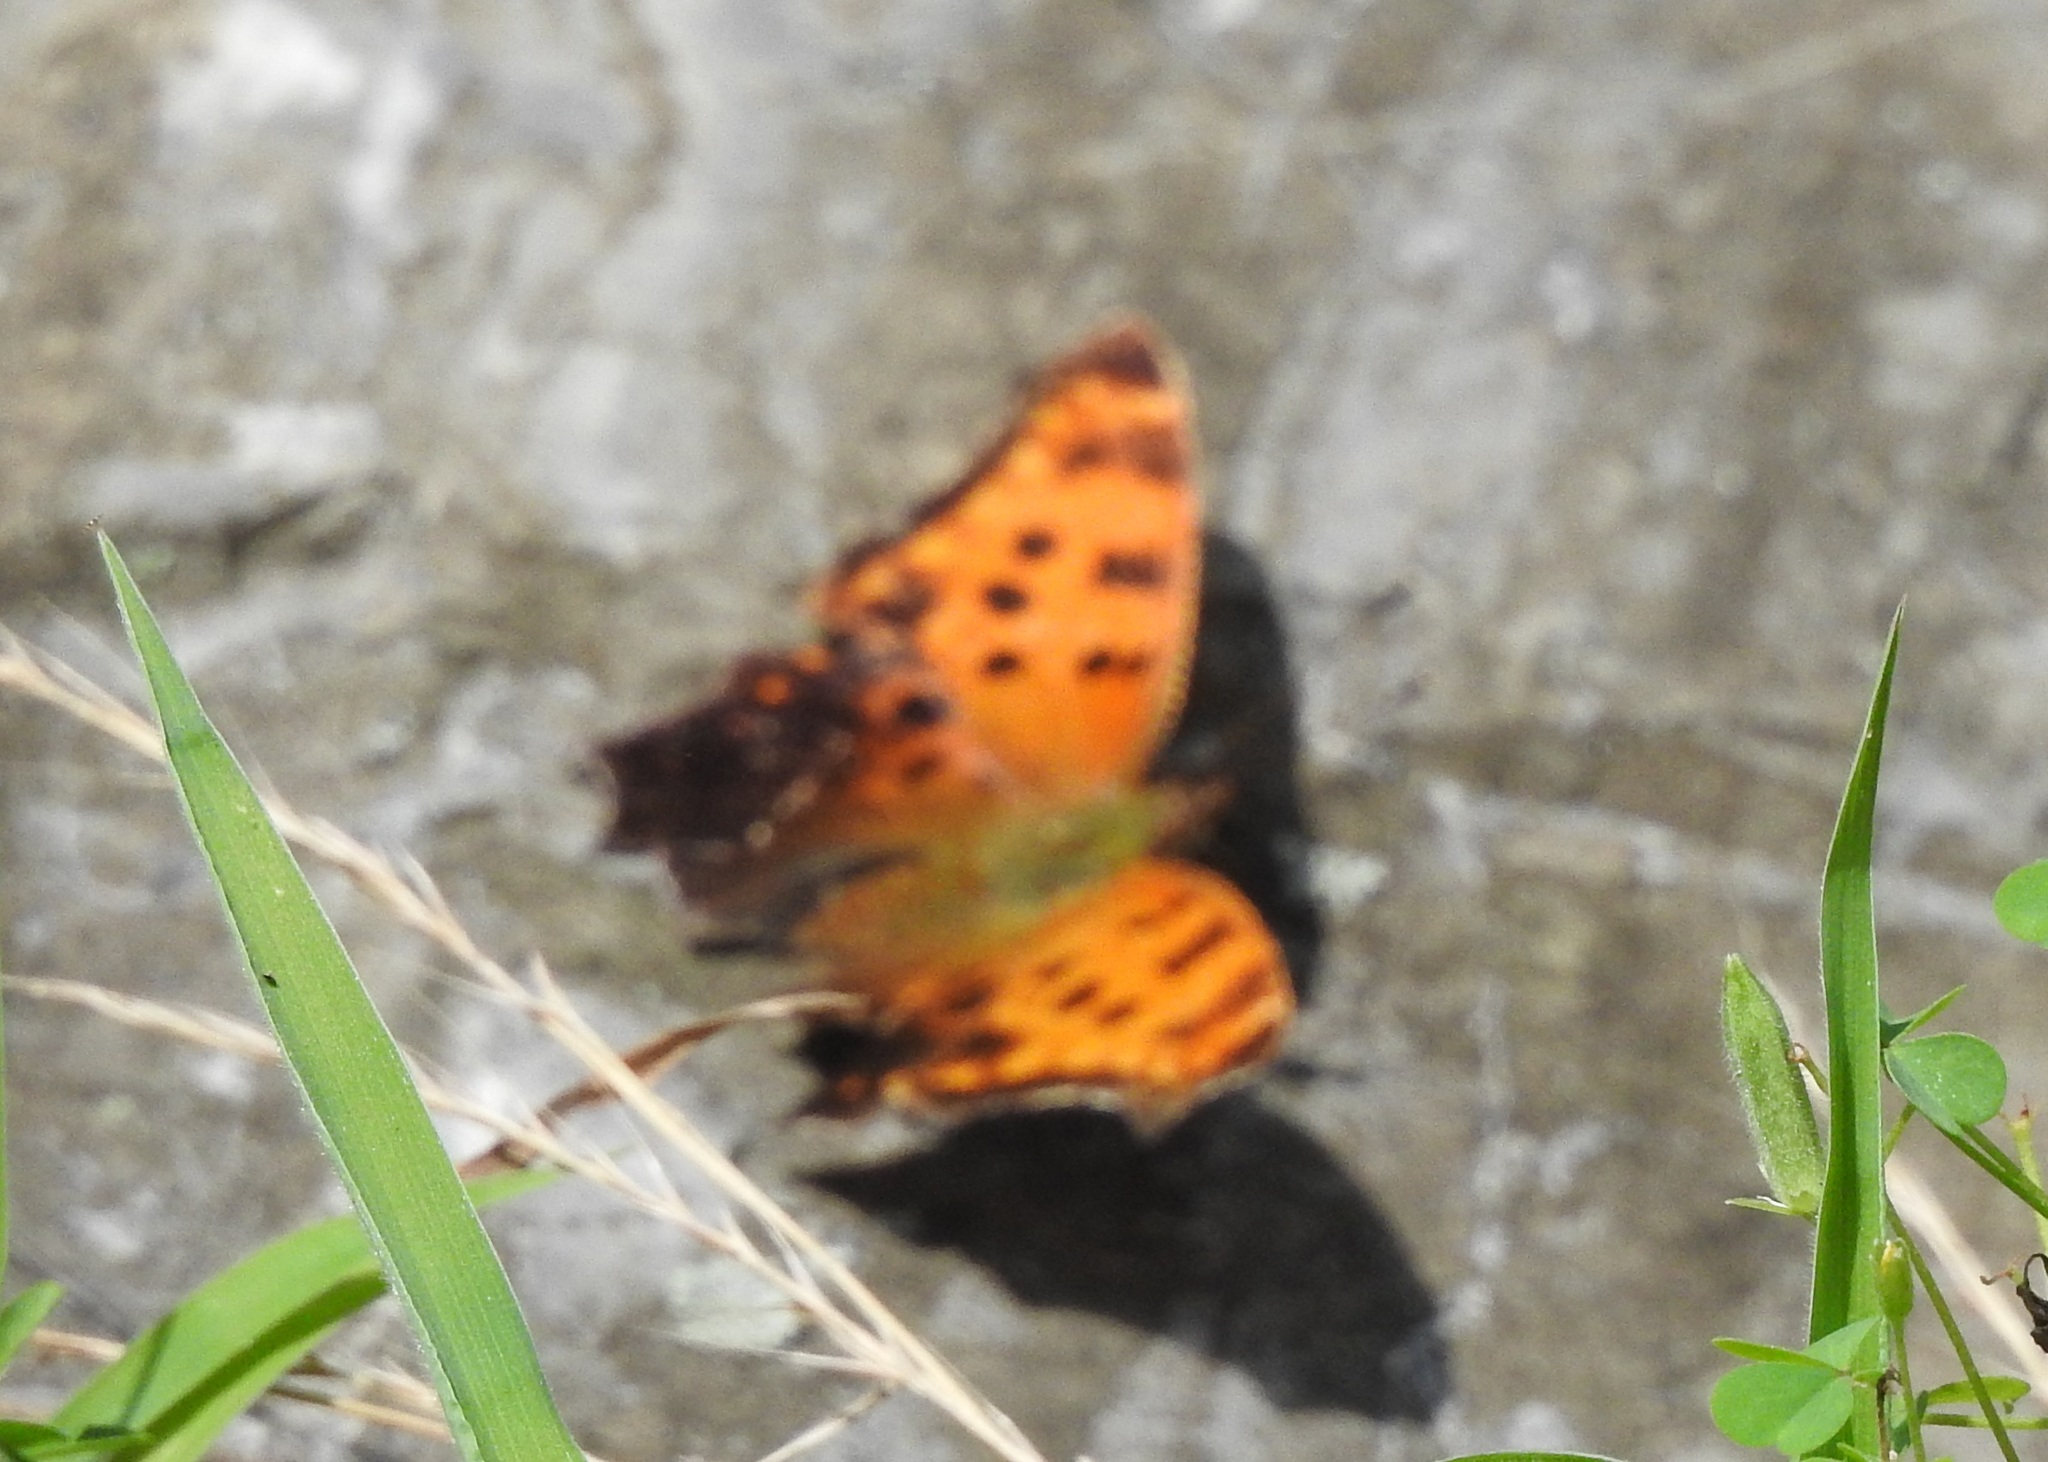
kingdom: Animalia
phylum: Arthropoda
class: Insecta
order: Lepidoptera
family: Nymphalidae
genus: Polygonia
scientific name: Polygonia comma
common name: Eastern comma
